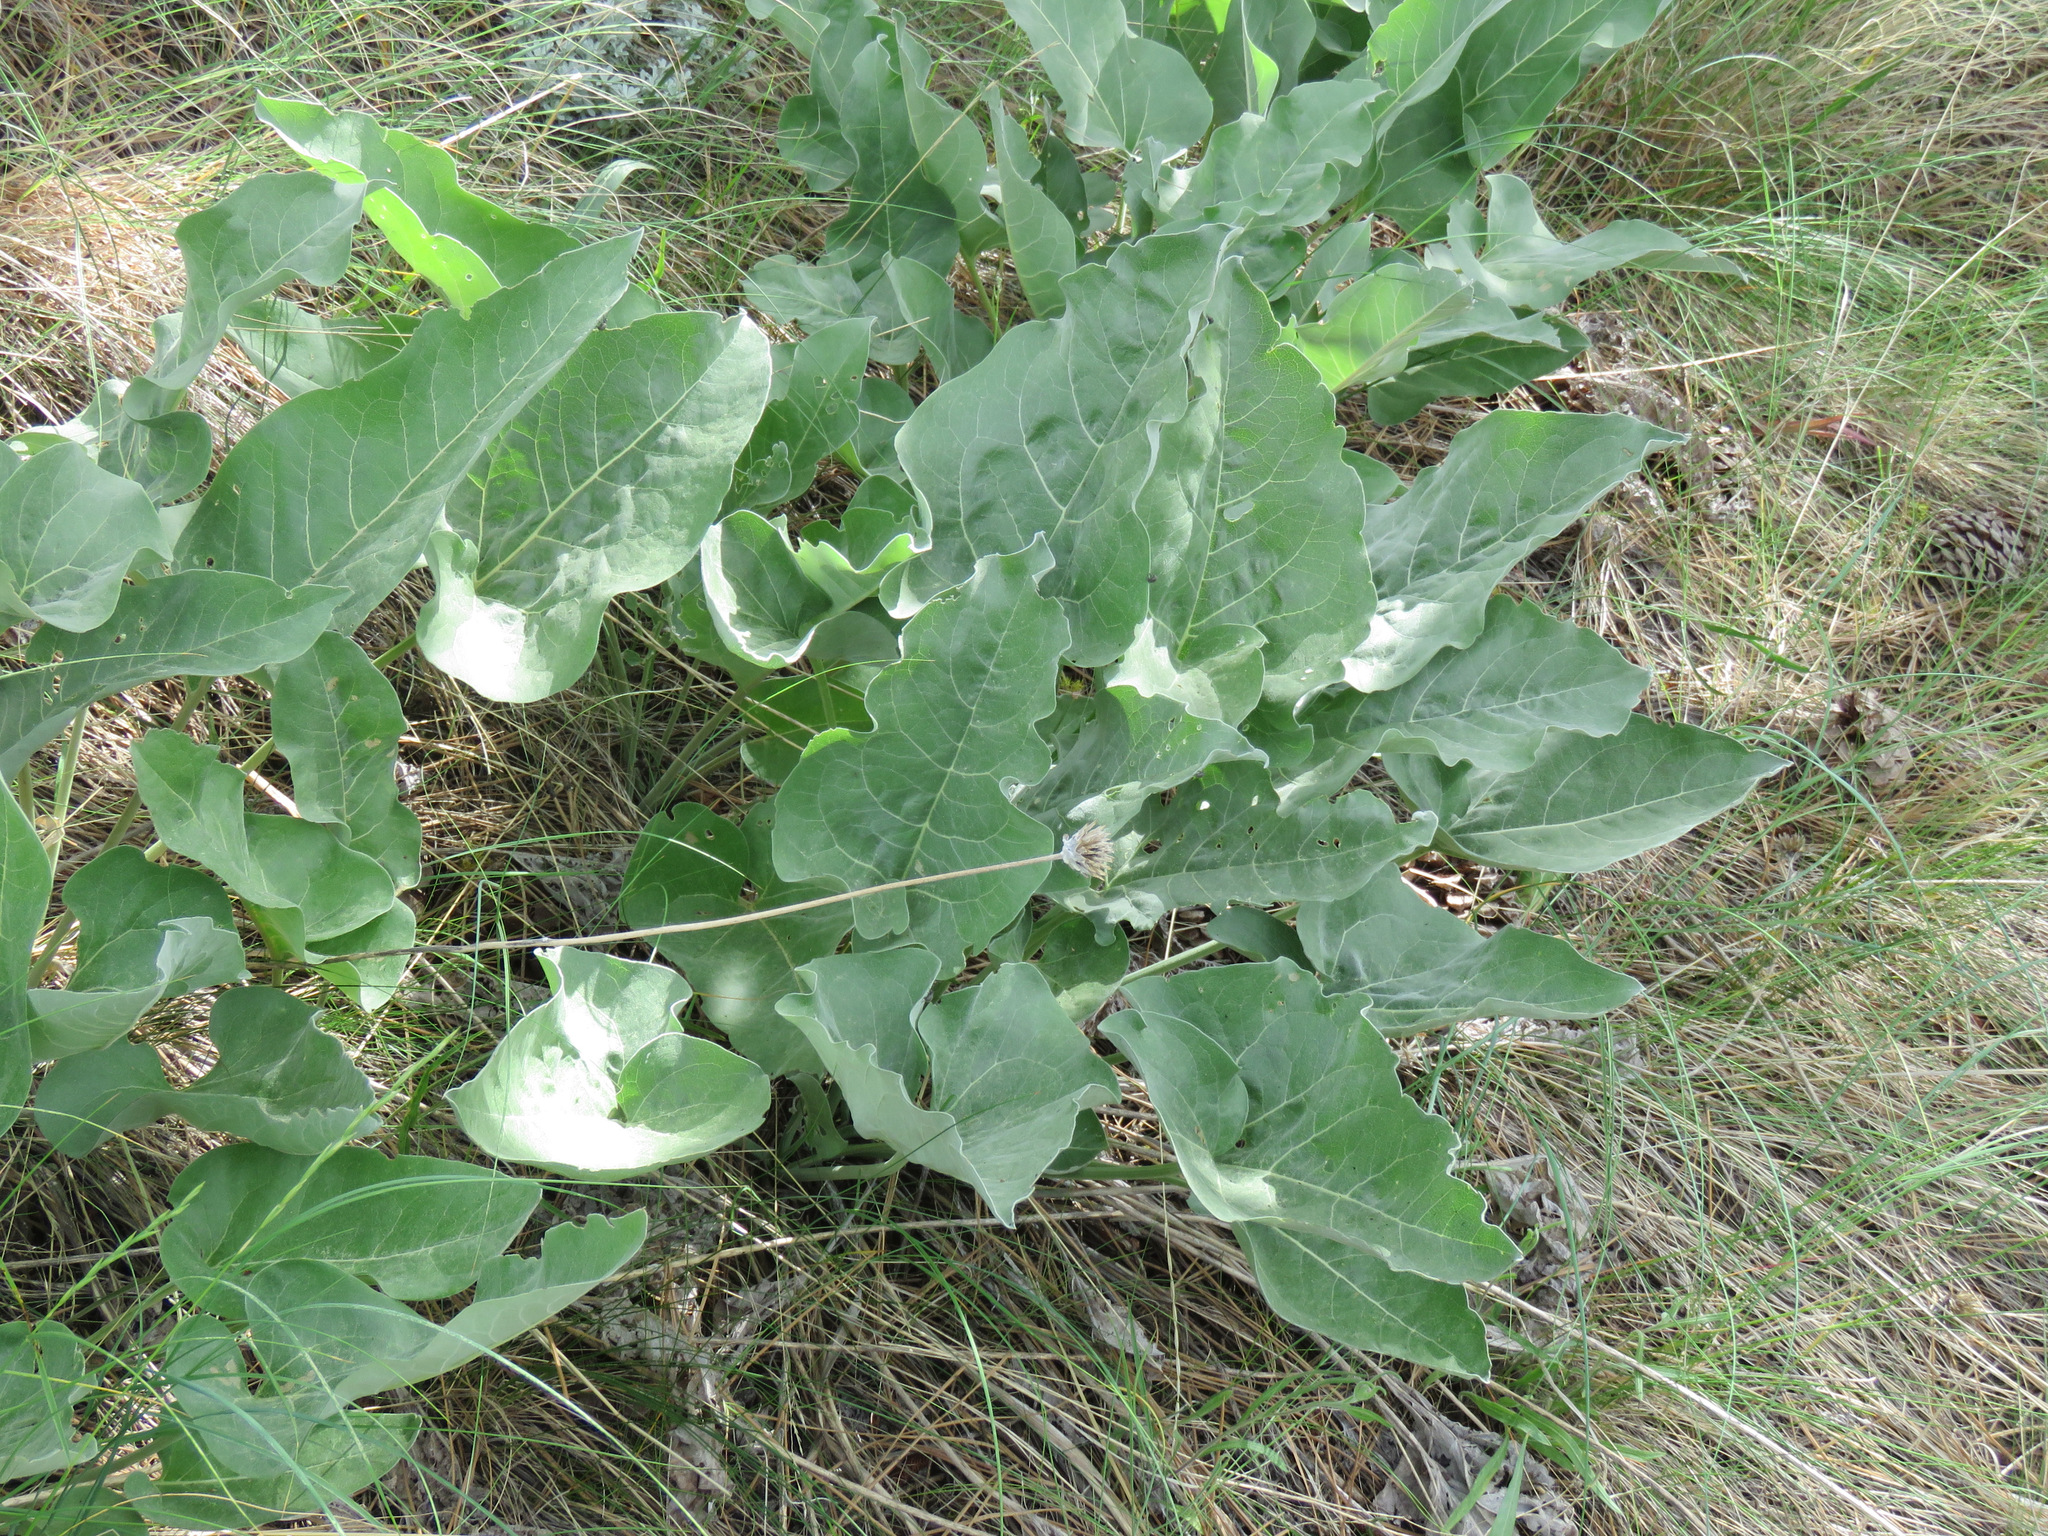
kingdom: Plantae
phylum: Tracheophyta
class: Magnoliopsida
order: Asterales
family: Asteraceae
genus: Wyethia
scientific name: Wyethia sagittata
